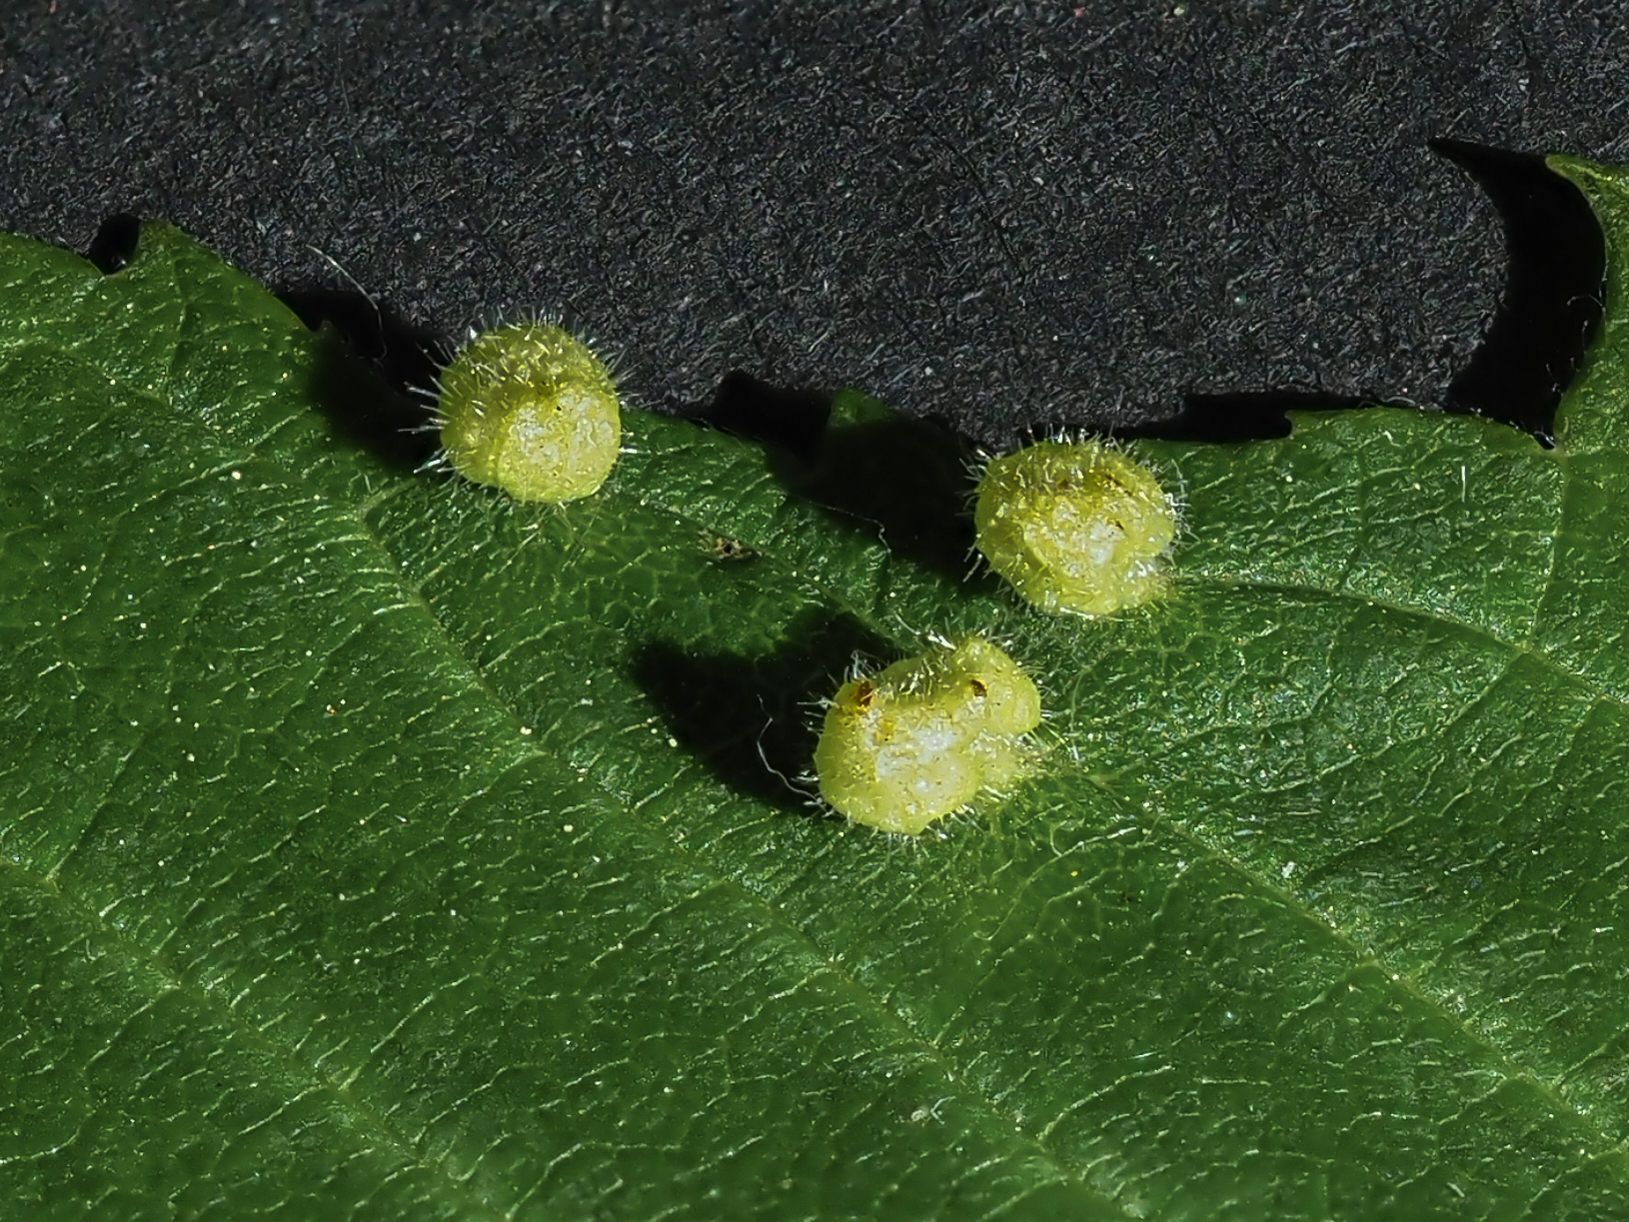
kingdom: Animalia
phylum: Arthropoda
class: Arachnida
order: Trombidiformes
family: Eriophyidae
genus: Aceria
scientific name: Aceria brevipunctata
